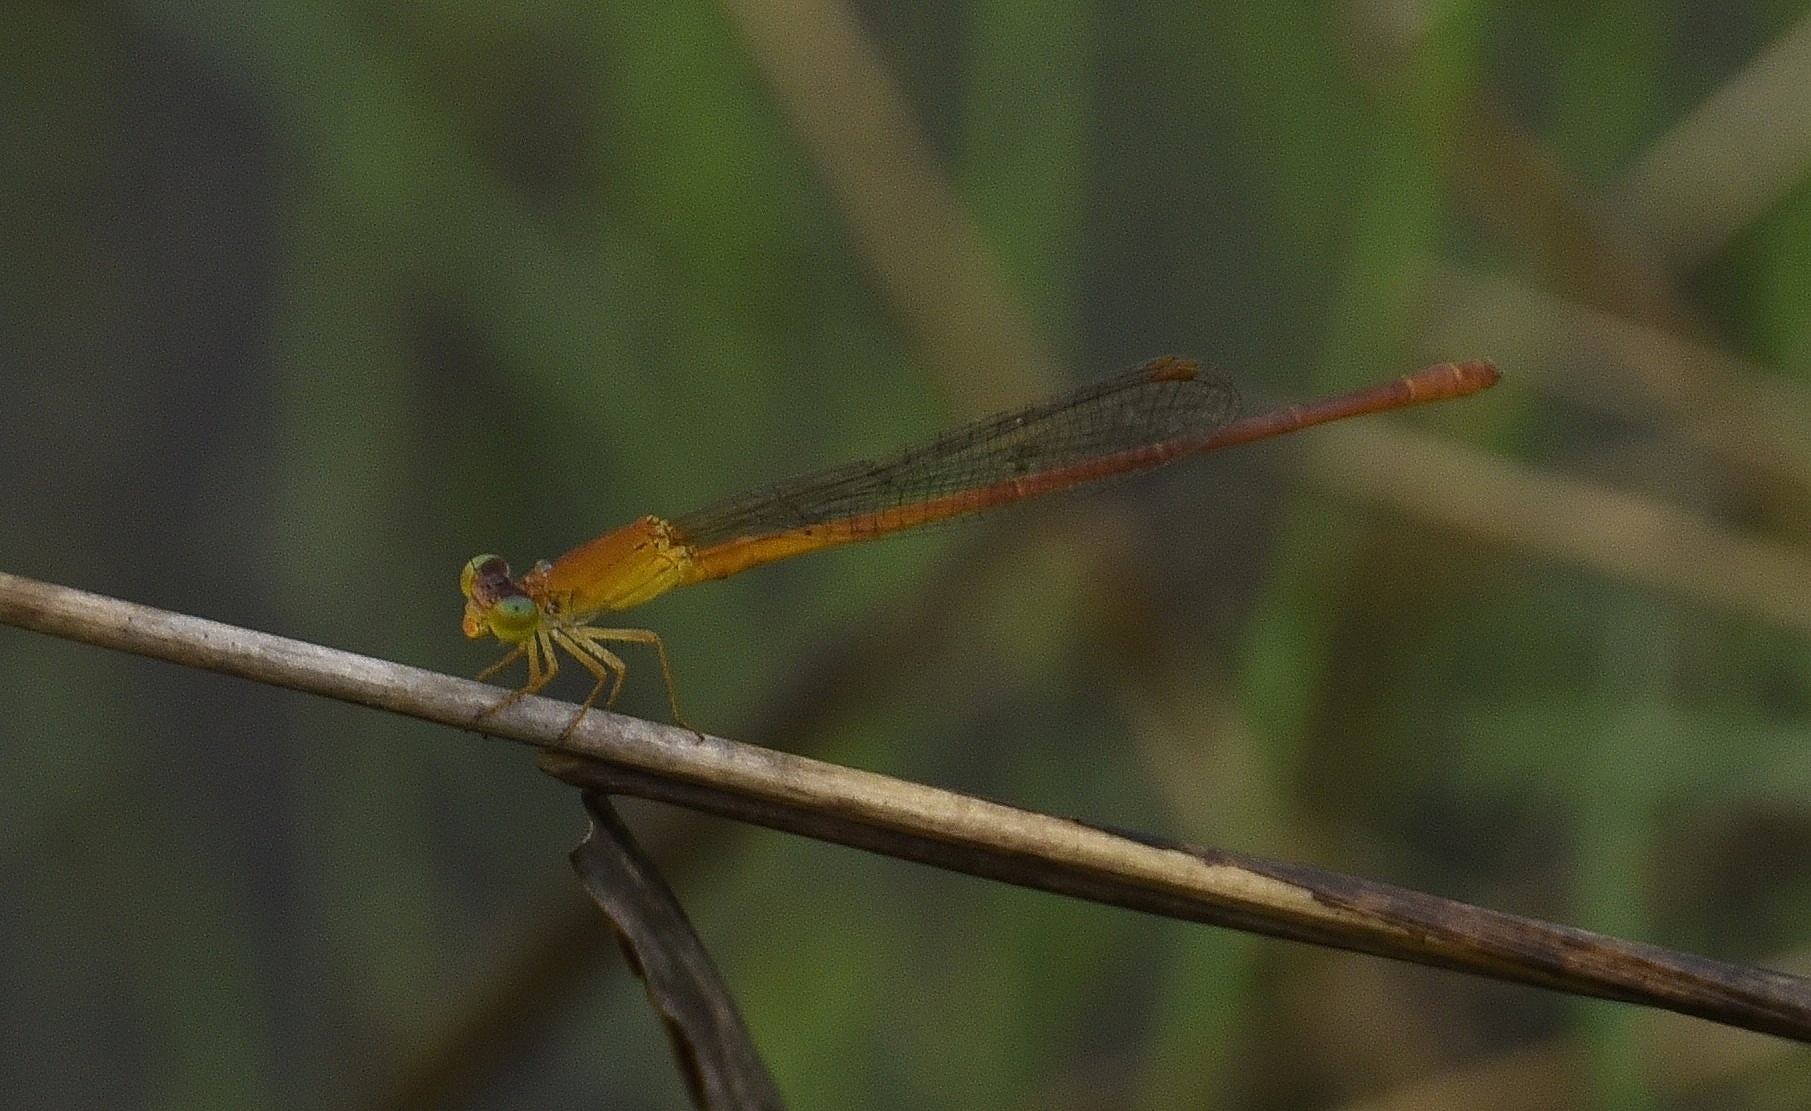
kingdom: Animalia
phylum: Arthropoda
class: Insecta
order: Odonata
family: Coenagrionidae
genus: Ceriagrion
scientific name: Ceriagrion rubiae
